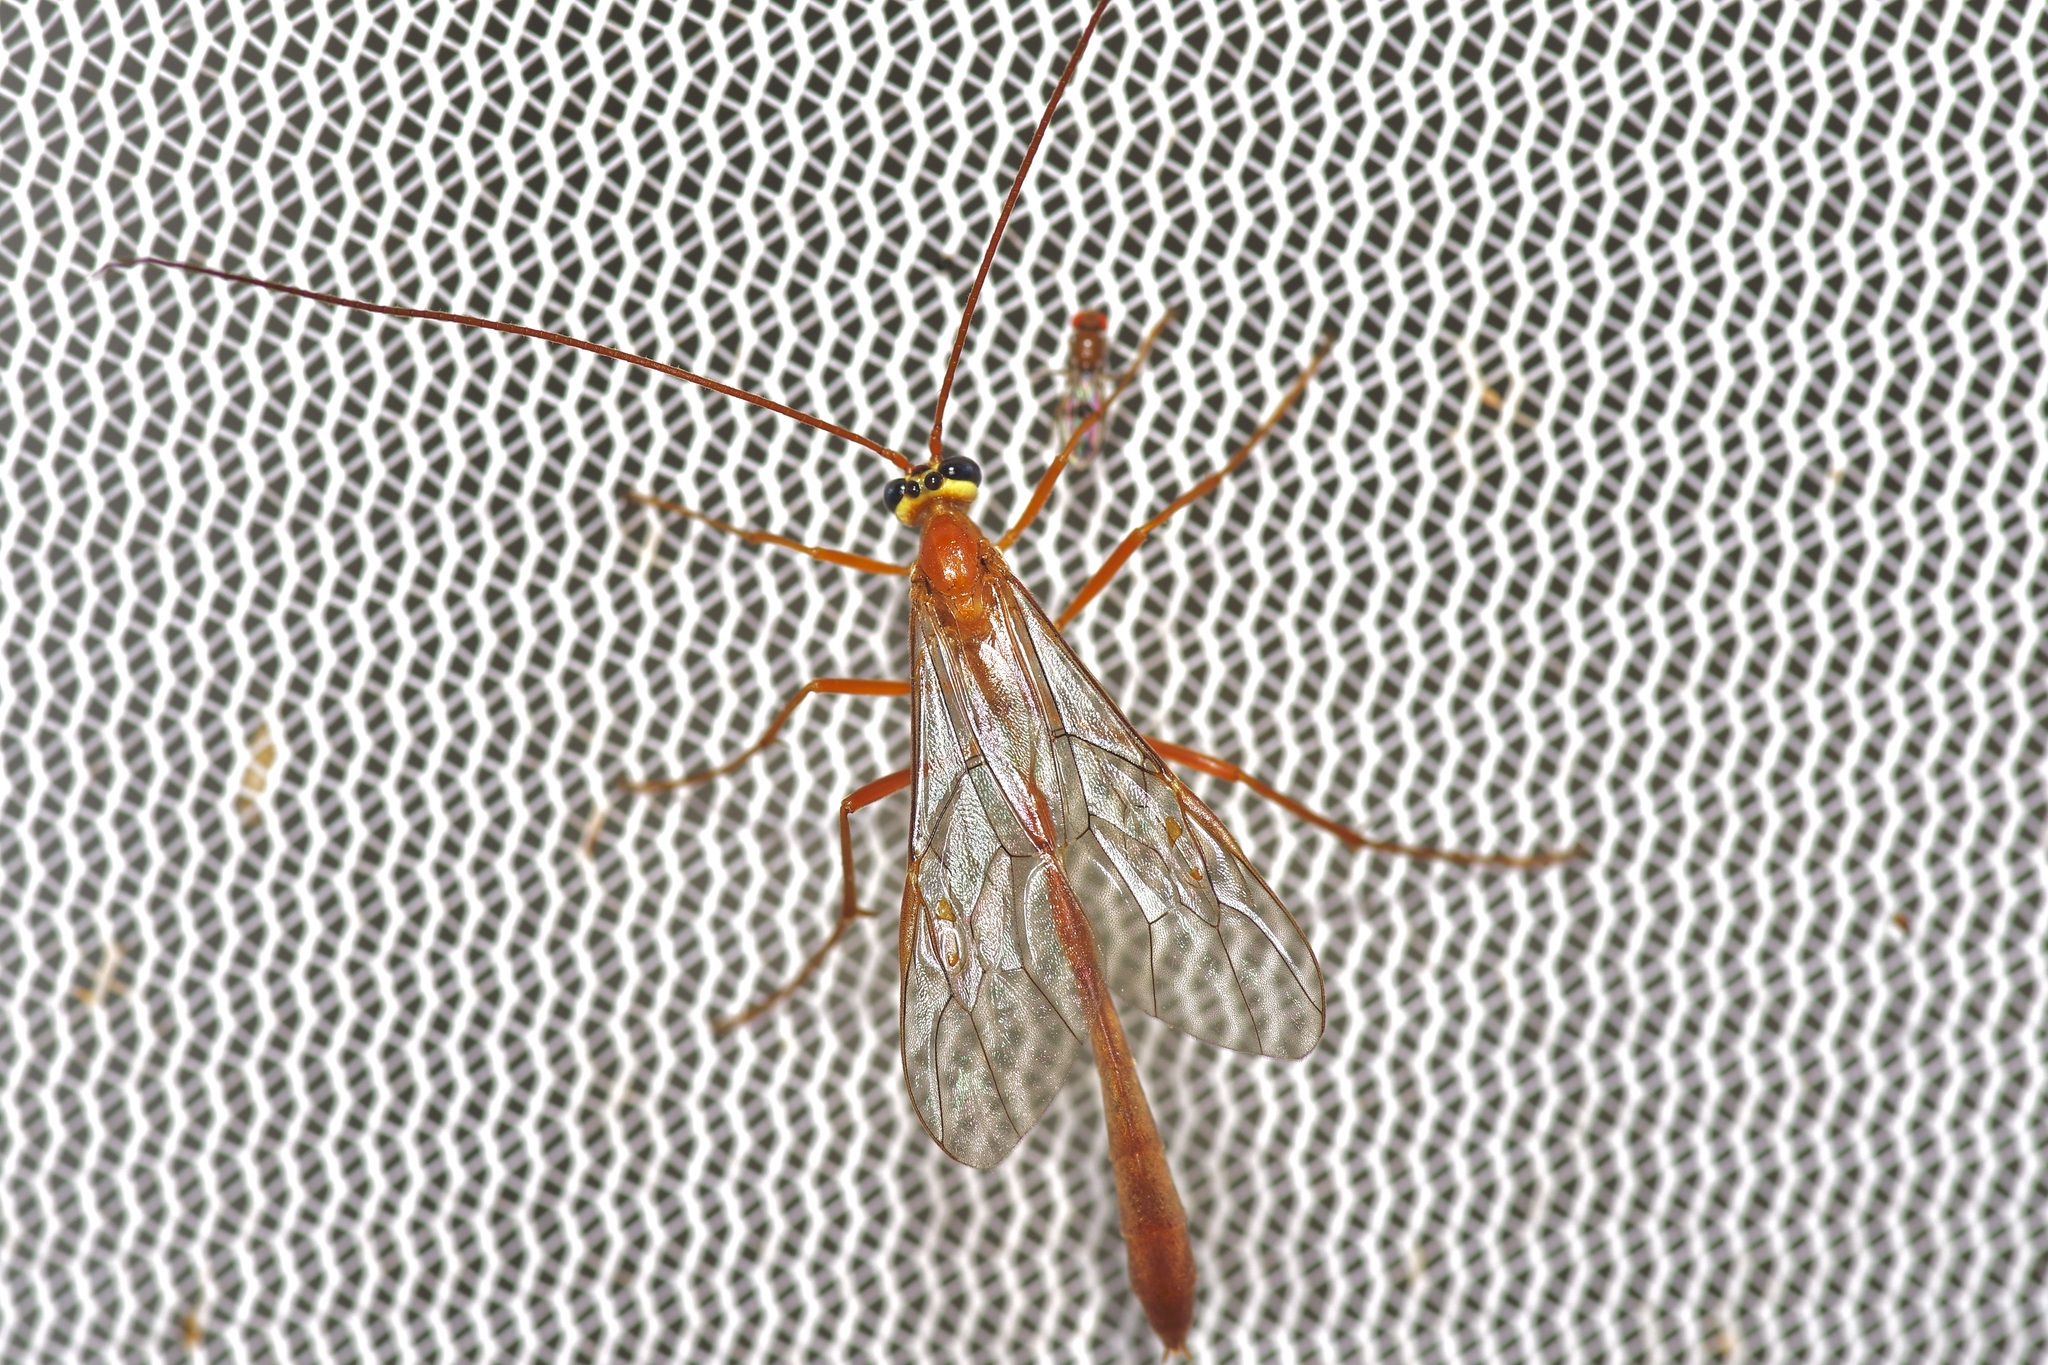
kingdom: Animalia
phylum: Arthropoda
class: Insecta
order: Hymenoptera
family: Ichneumonidae
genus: Enicospilus
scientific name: Enicospilus purgatus
